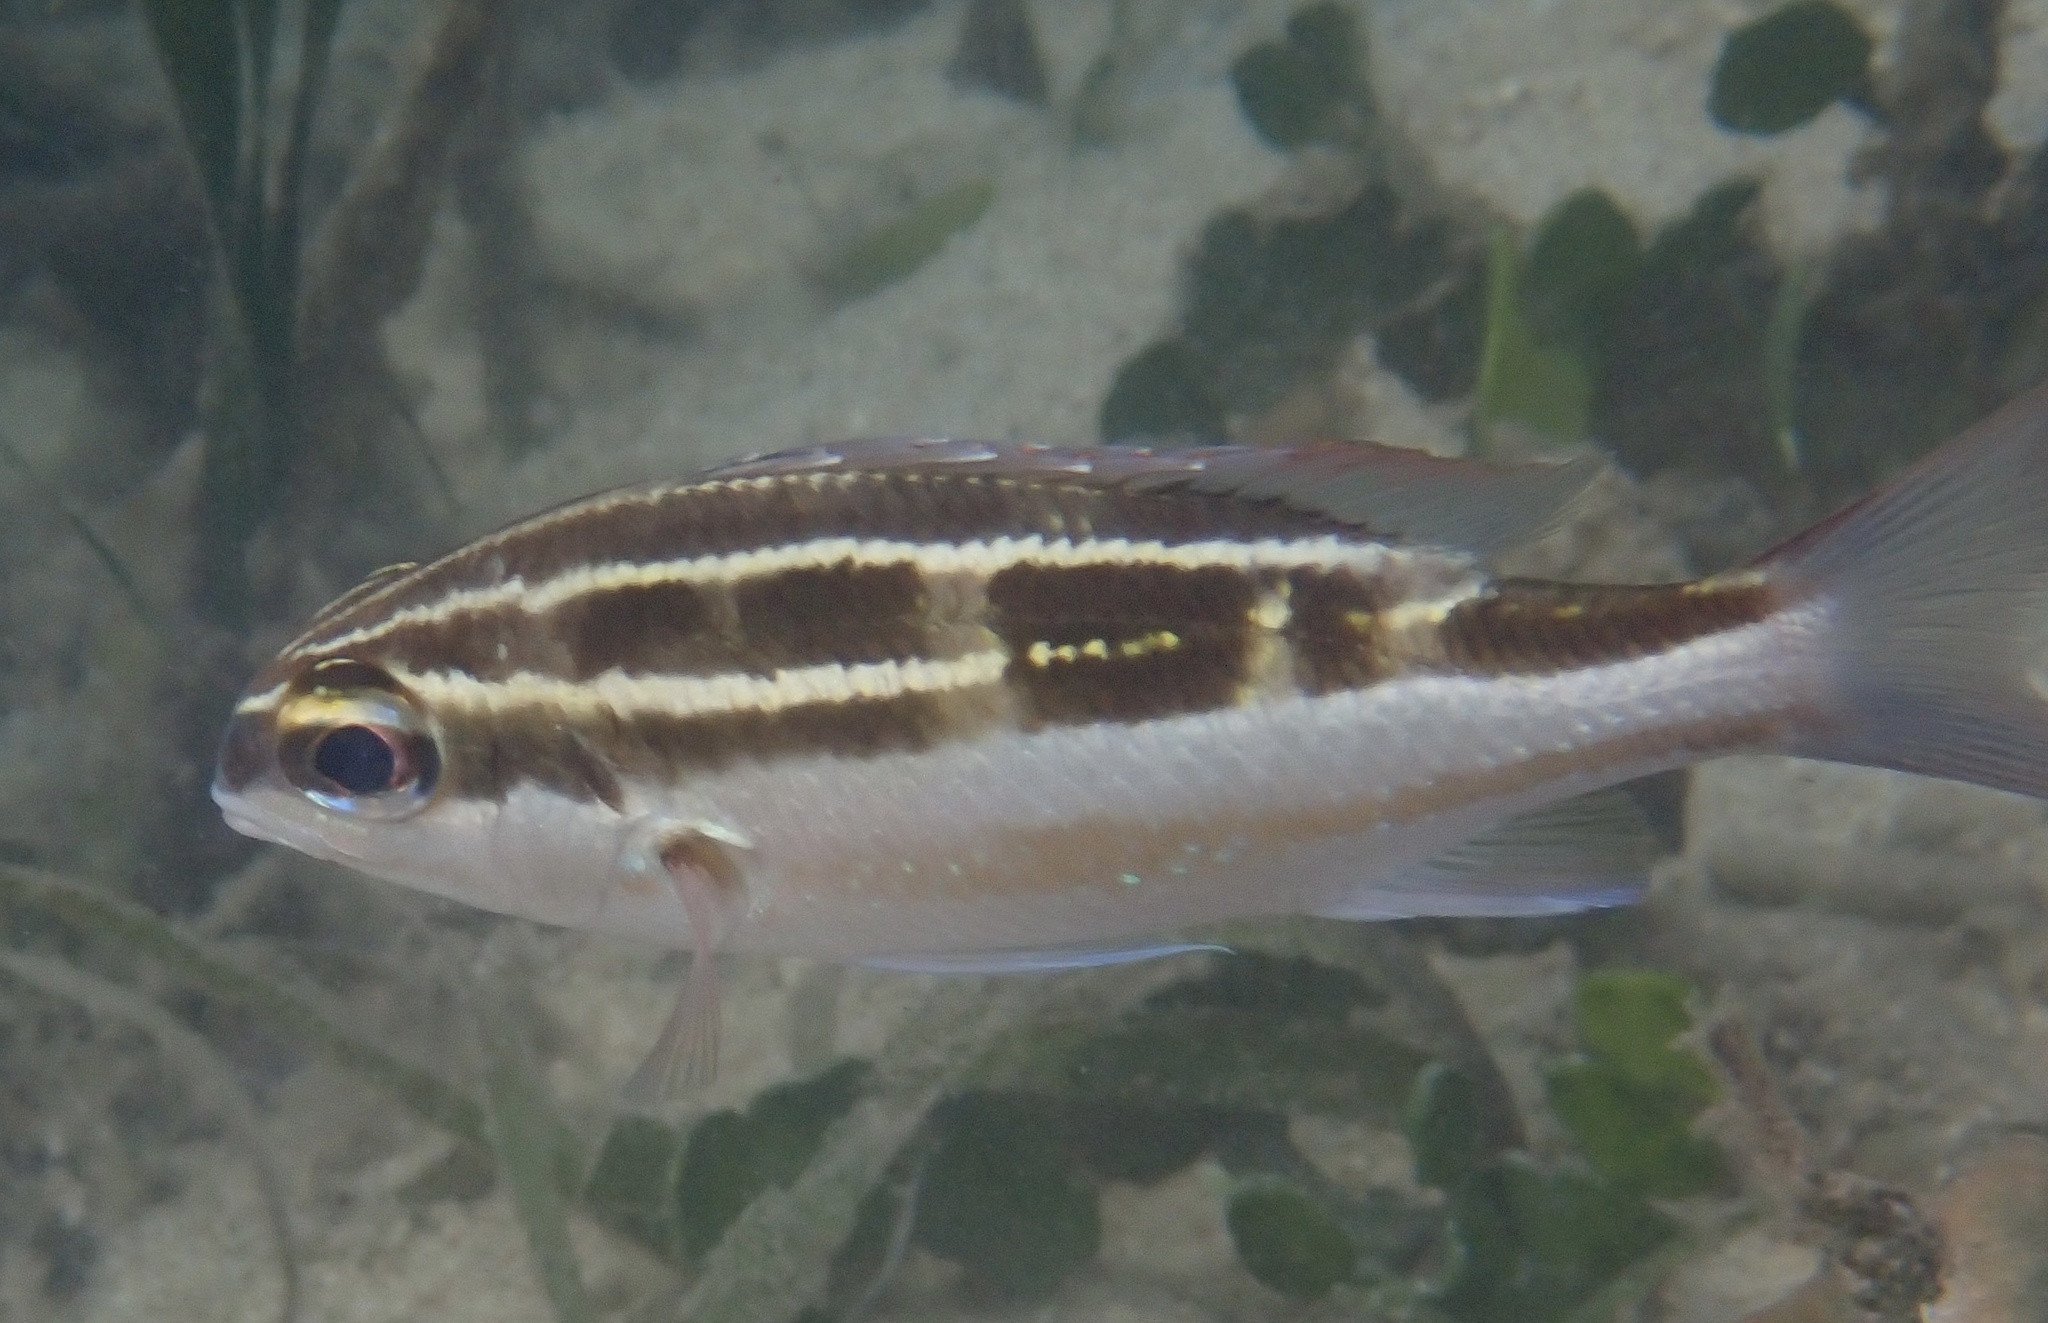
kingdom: Animalia
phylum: Chordata
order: Perciformes
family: Nemipteridae
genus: Scolopsis
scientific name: Scolopsis lineata
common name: Striped monocle bream
